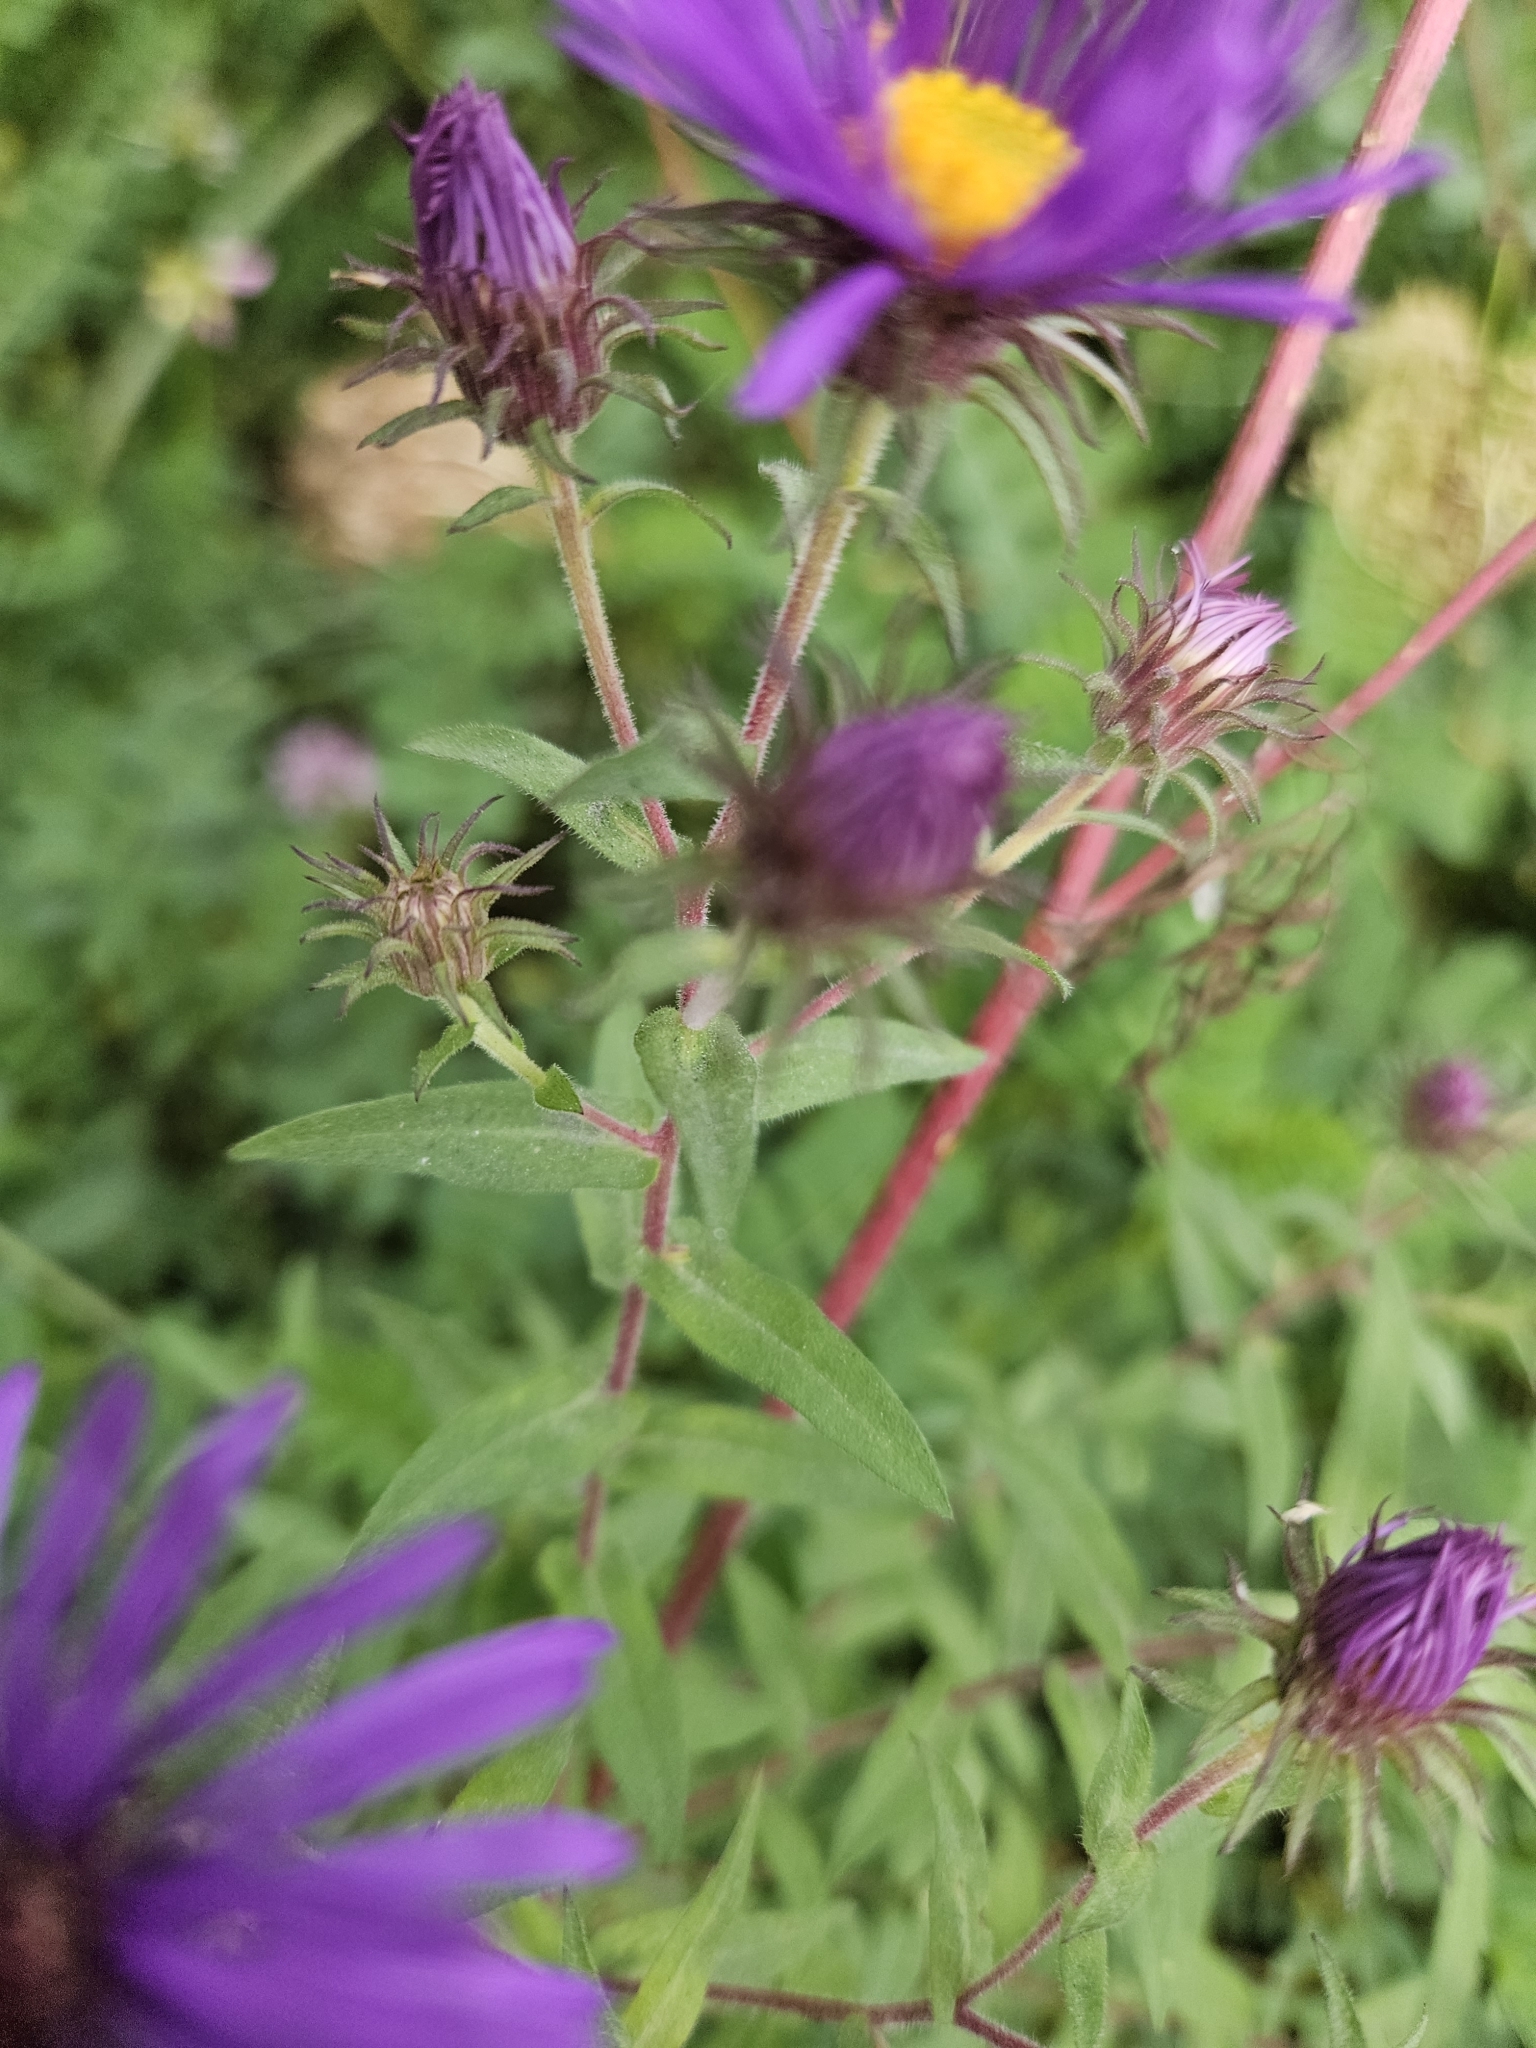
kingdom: Plantae
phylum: Tracheophyta
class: Magnoliopsida
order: Asterales
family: Asteraceae
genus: Symphyotrichum
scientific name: Symphyotrichum novae-angliae
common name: Michaelmas daisy
